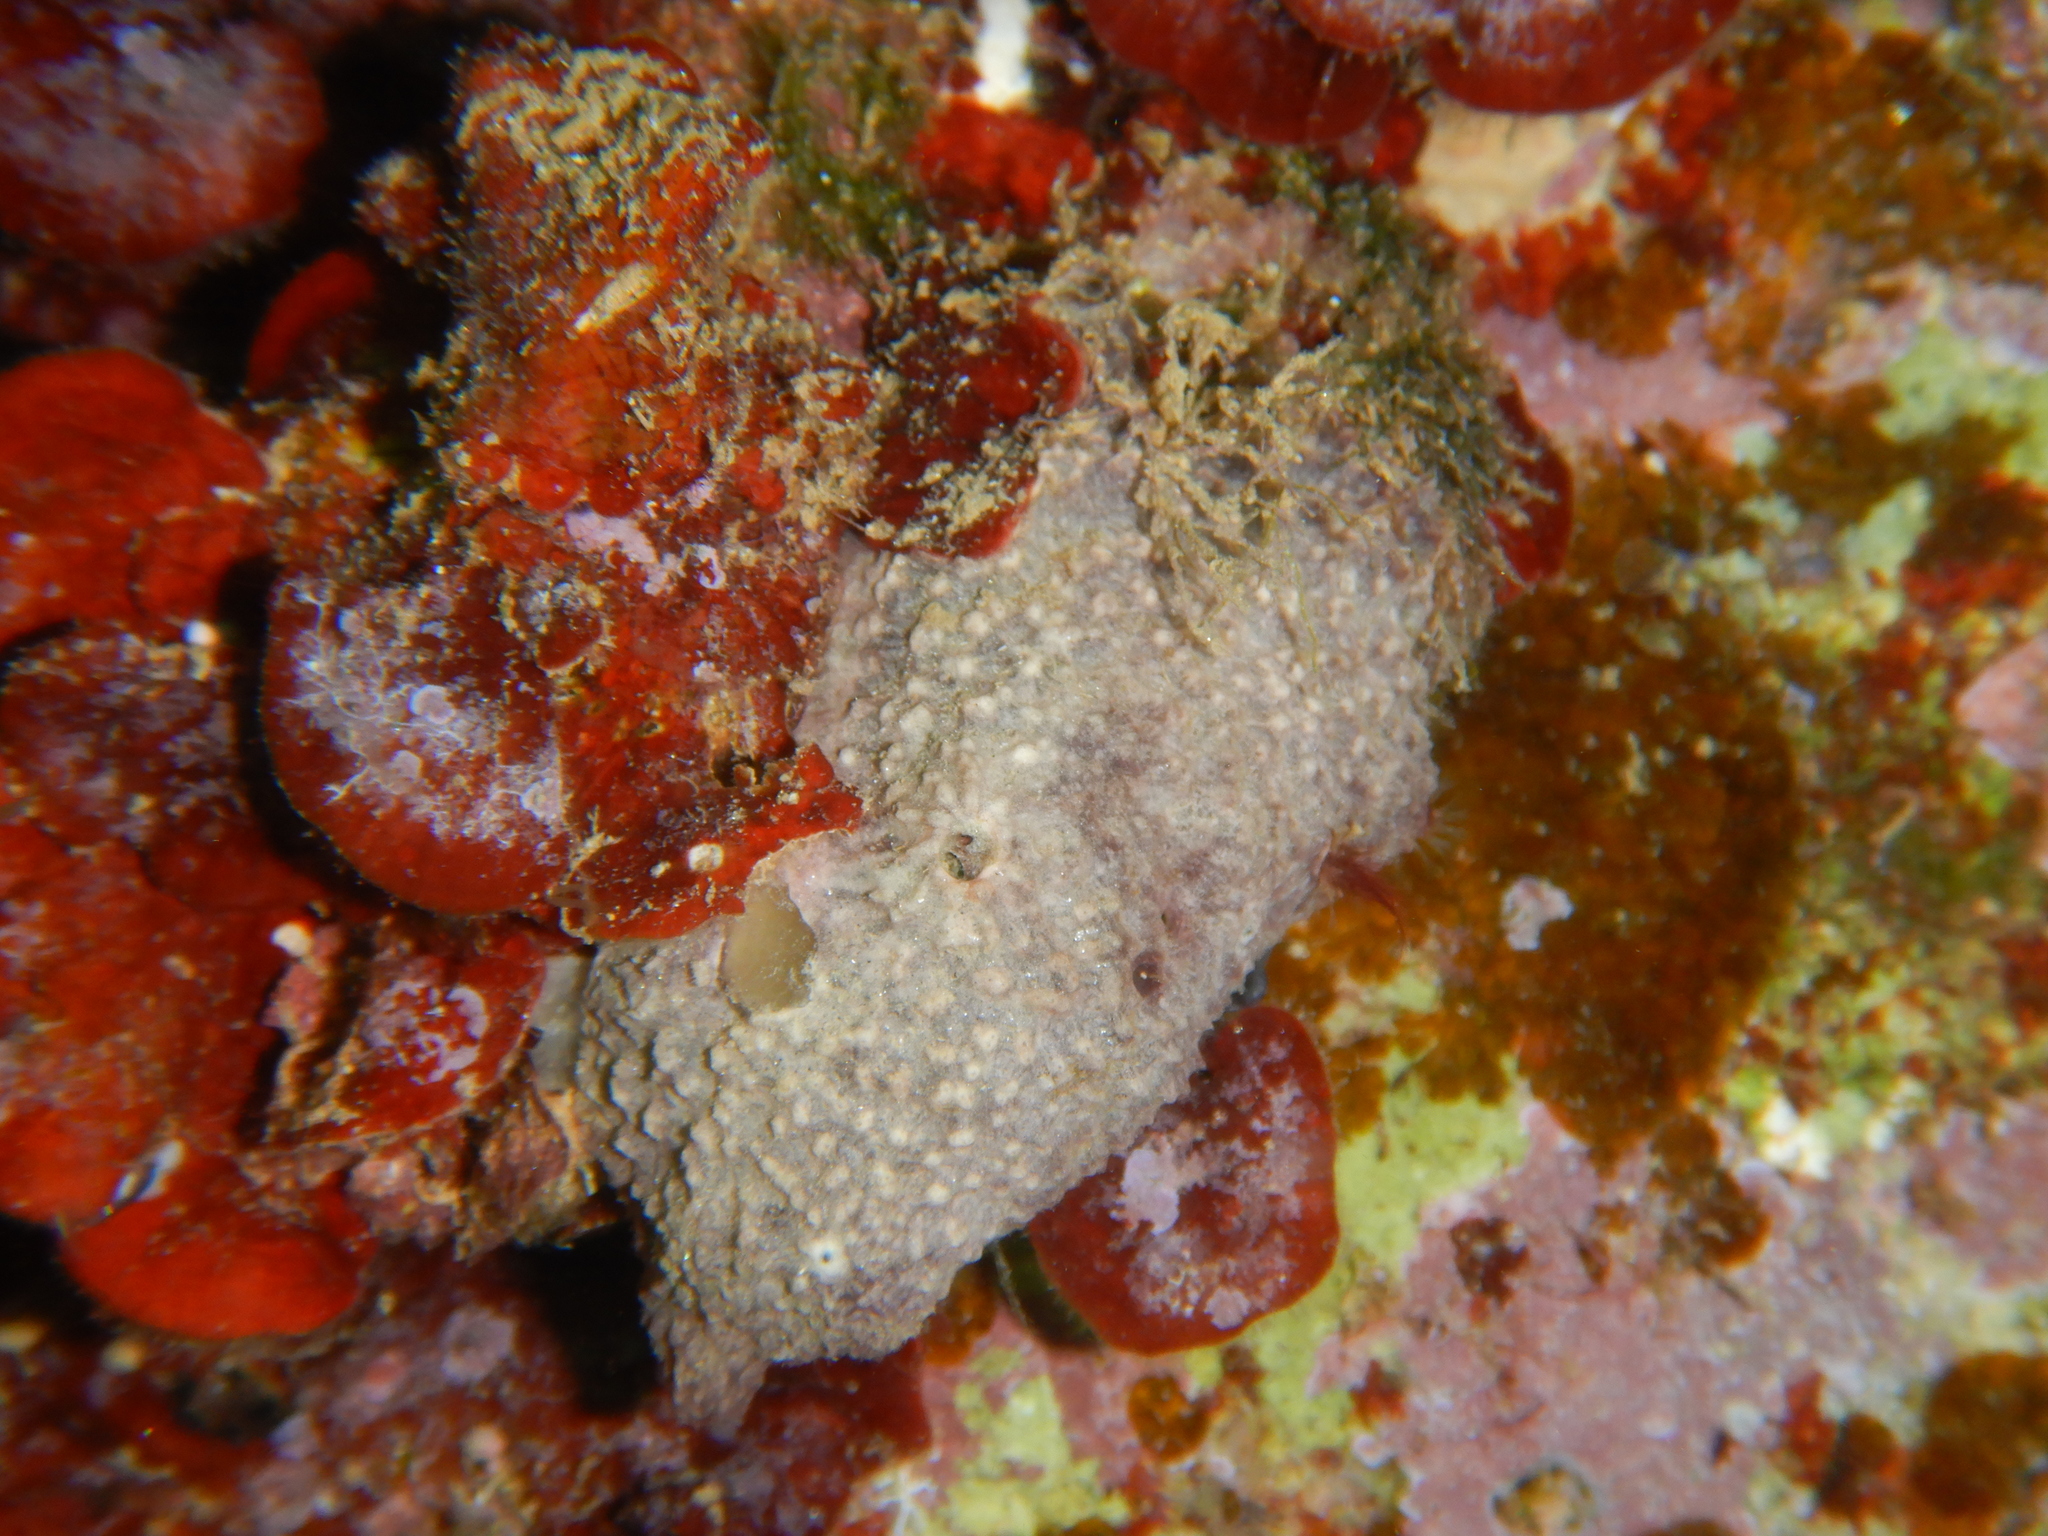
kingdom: Animalia
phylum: Porifera
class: Demospongiae
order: Dictyoceratida
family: Irciniidae
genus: Ircinia
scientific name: Ircinia variabilis
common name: Variable loggerhead sponge
